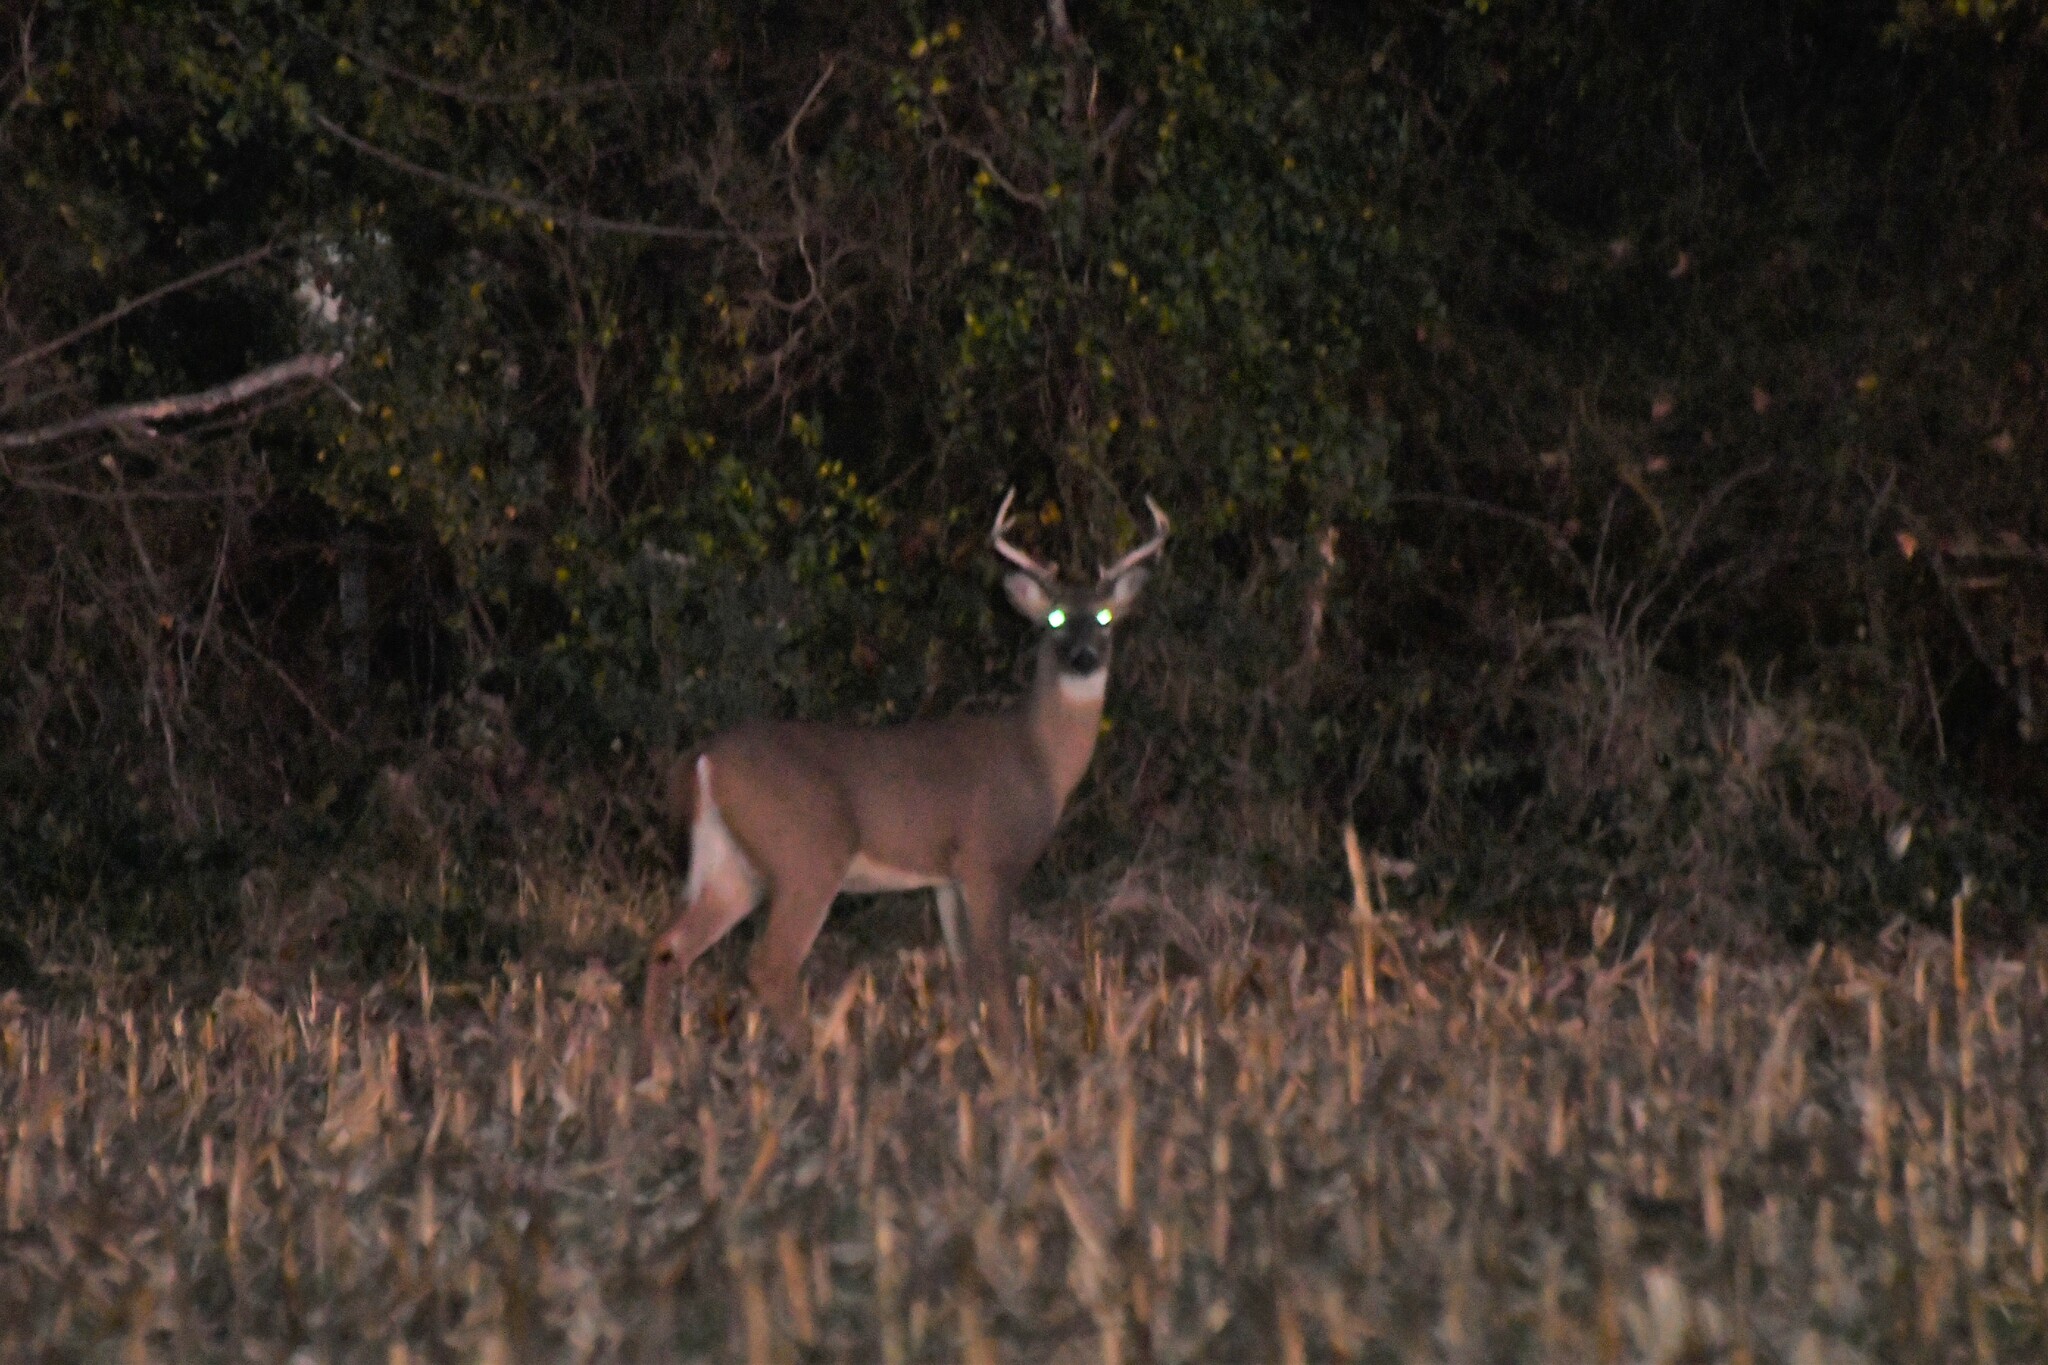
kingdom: Animalia
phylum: Chordata
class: Mammalia
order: Artiodactyla
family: Cervidae
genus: Odocoileus
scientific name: Odocoileus virginianus
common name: White-tailed deer
